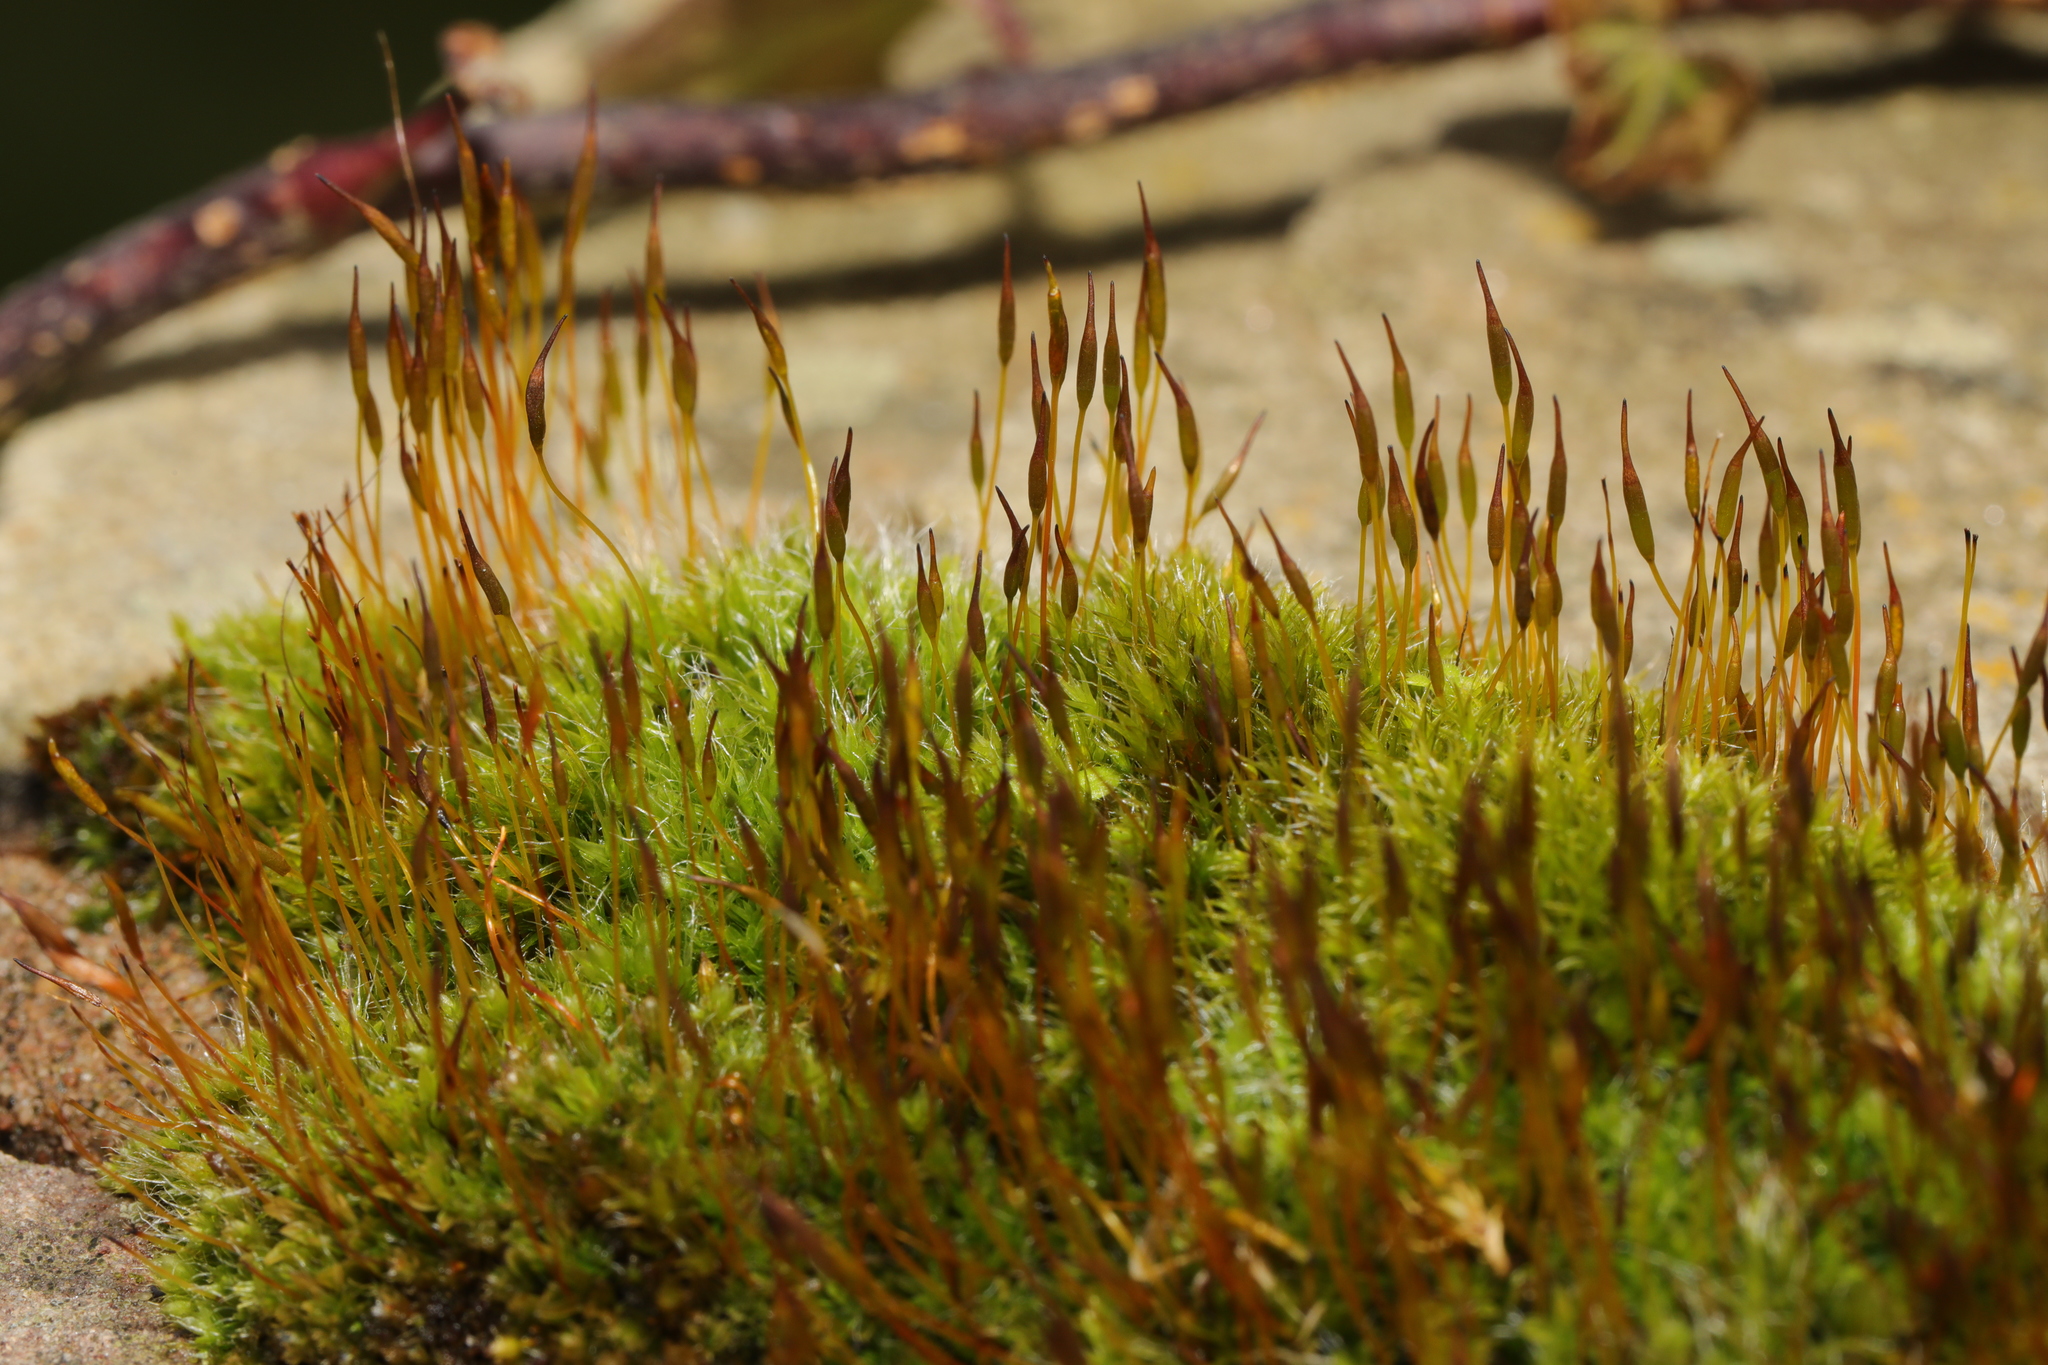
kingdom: Plantae
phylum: Bryophyta
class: Bryopsida
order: Pottiales
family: Pottiaceae
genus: Tortula
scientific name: Tortula muralis
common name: Wall screw-moss
